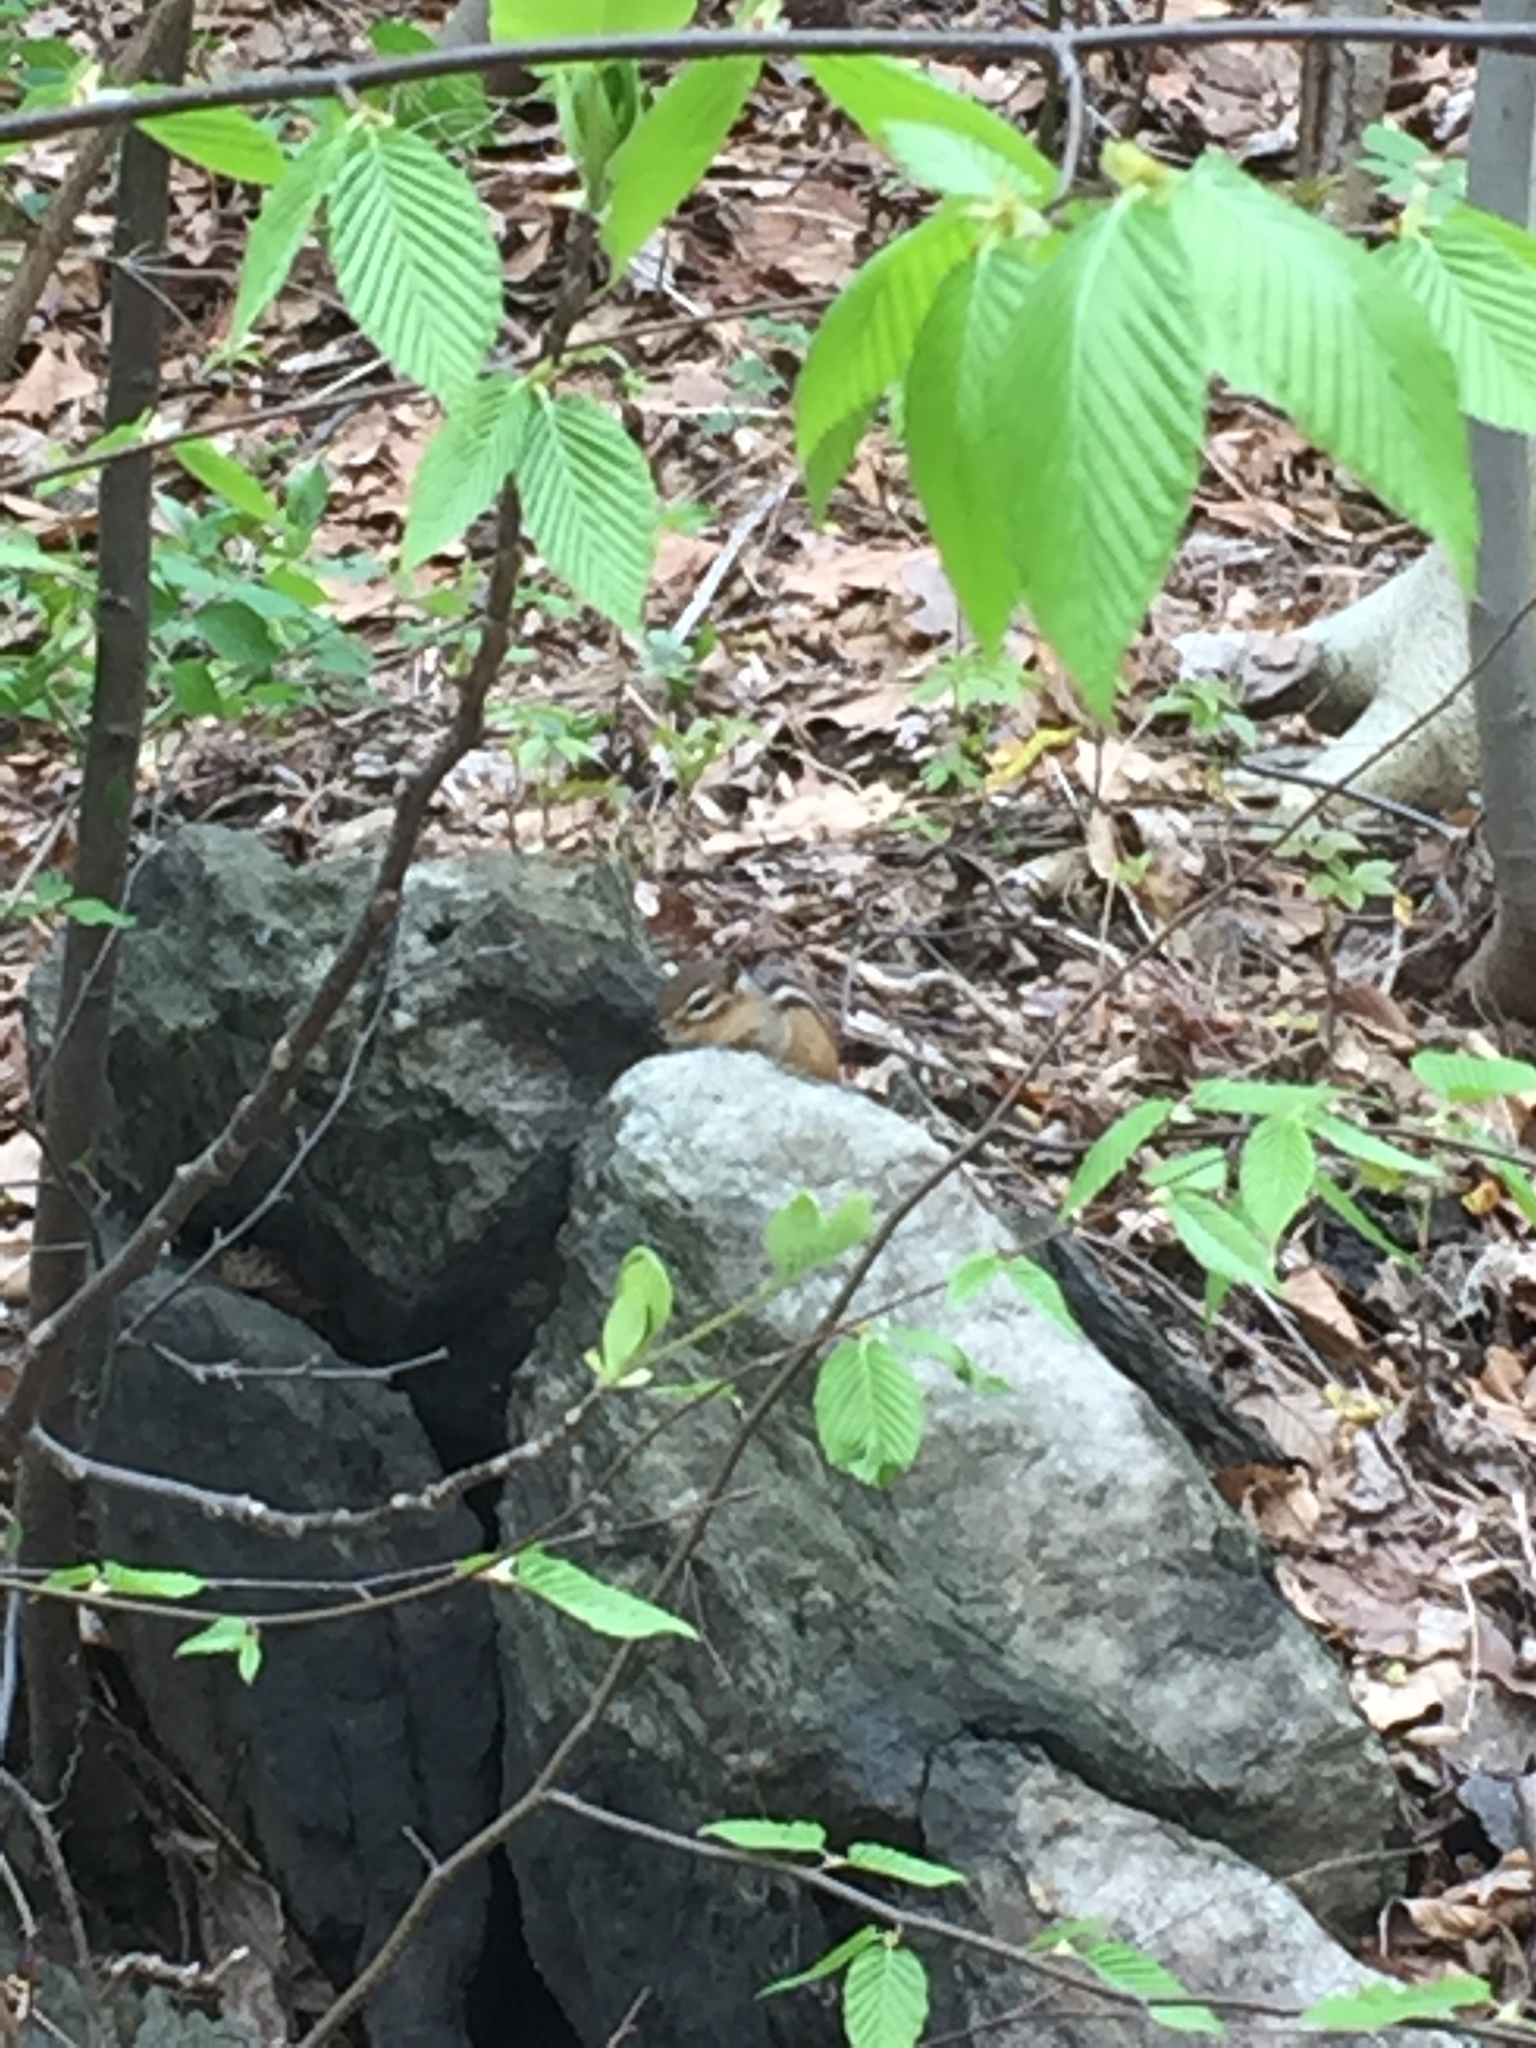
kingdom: Animalia
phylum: Chordata
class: Mammalia
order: Rodentia
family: Sciuridae
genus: Tamias
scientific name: Tamias striatus
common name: Eastern chipmunk
